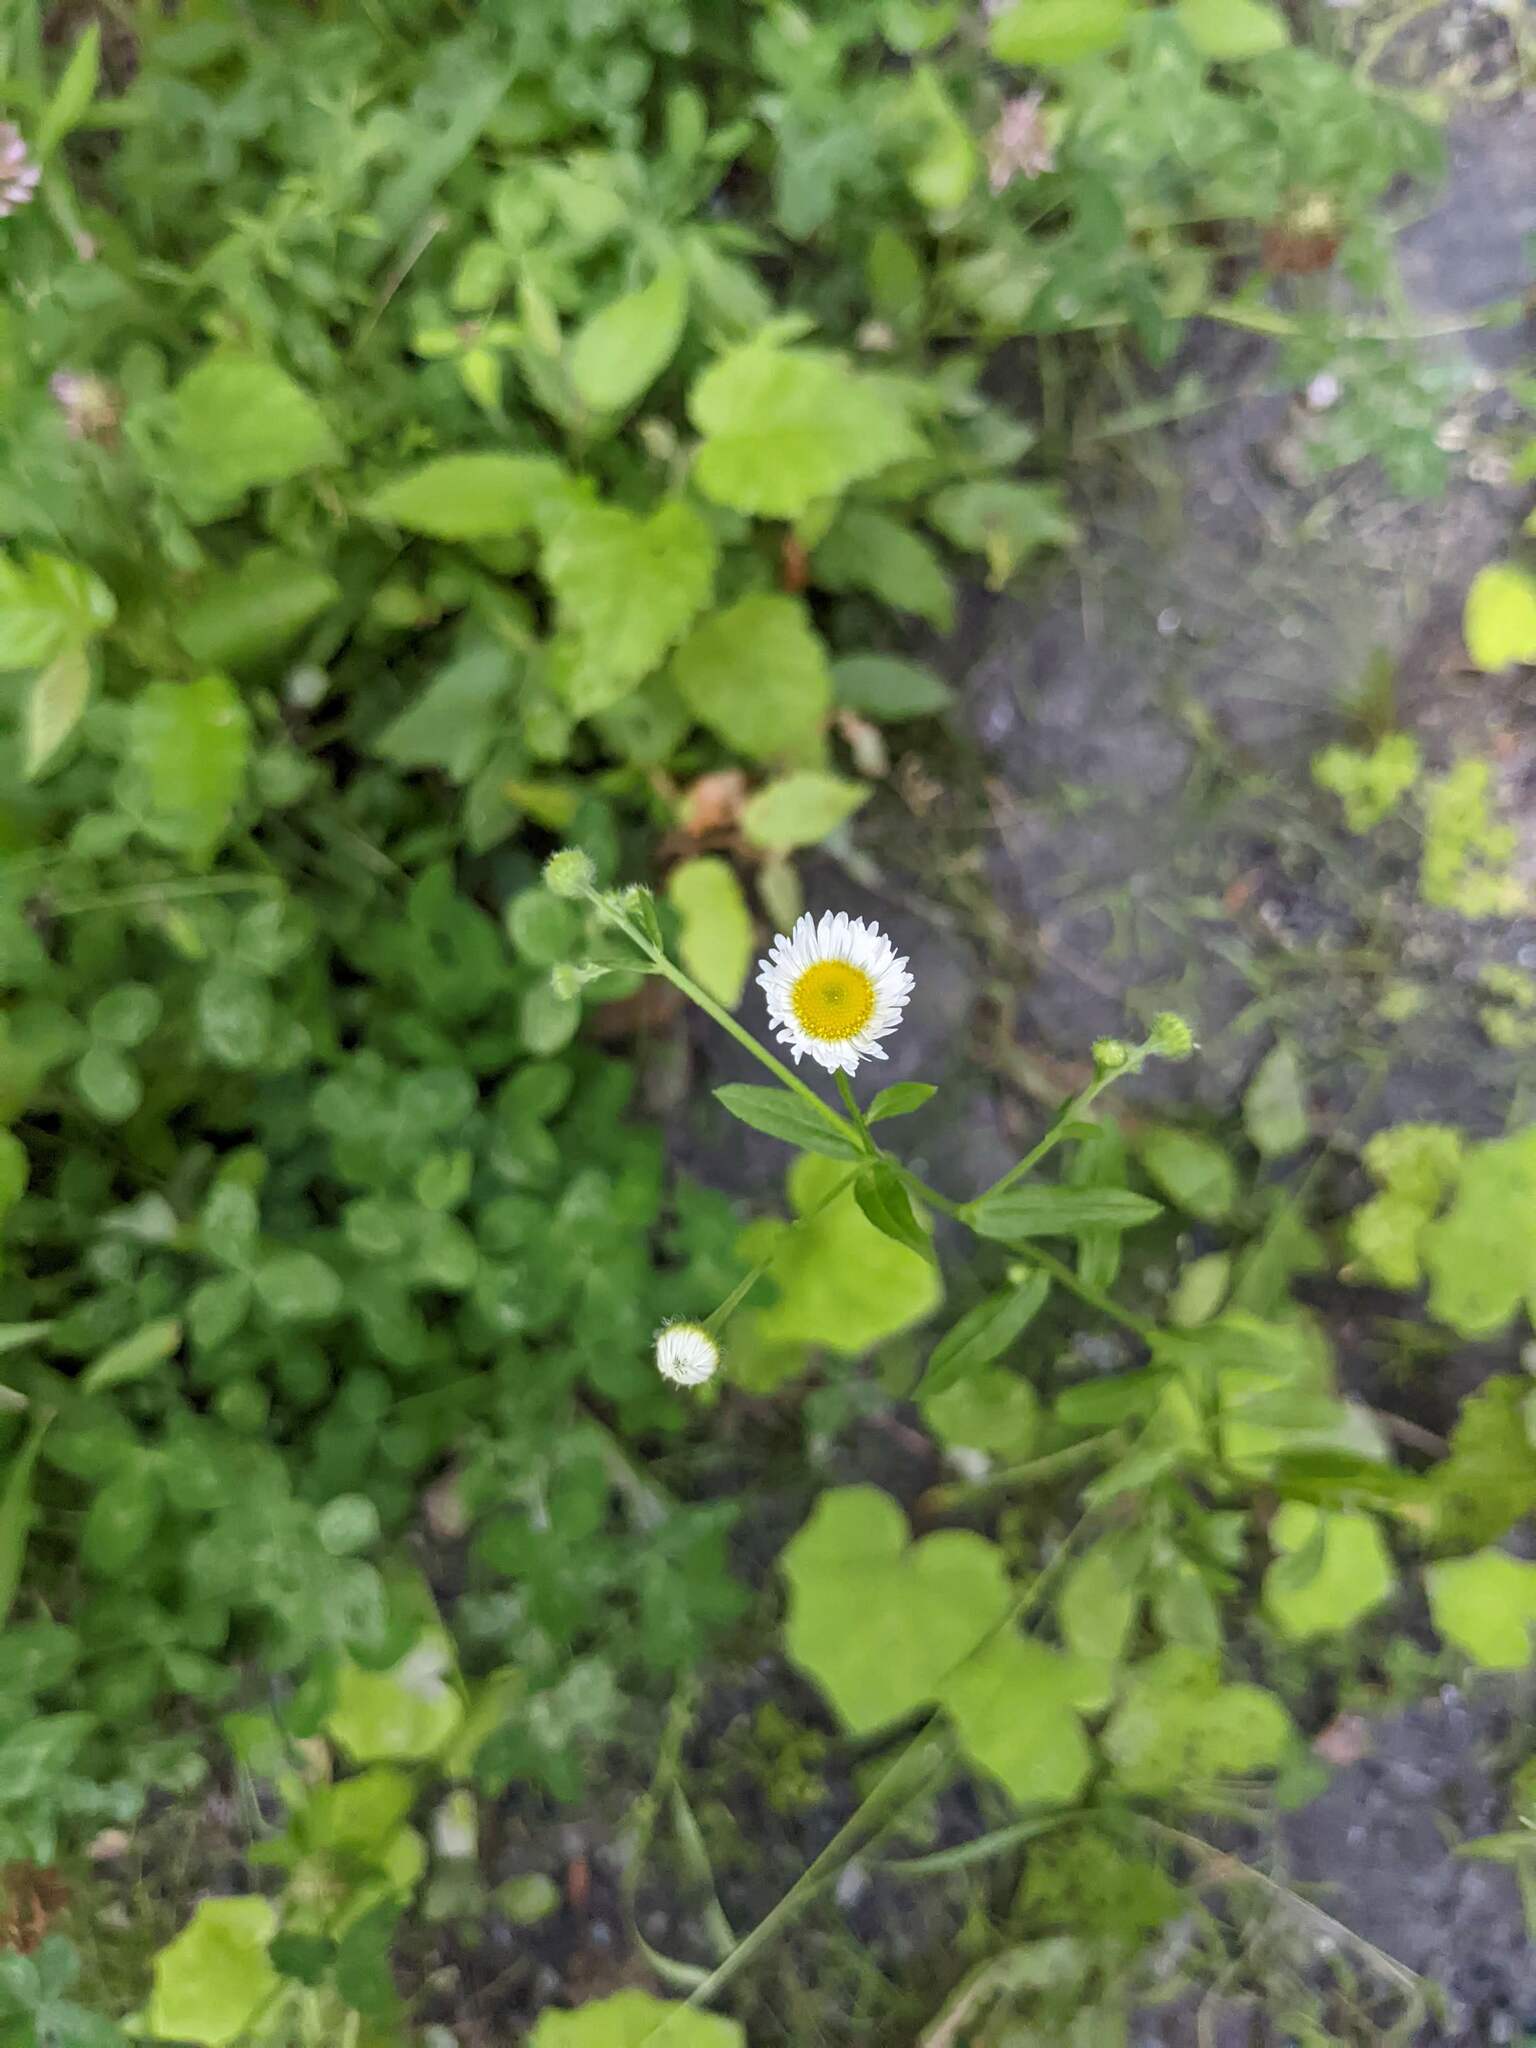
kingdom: Plantae
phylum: Tracheophyta
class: Magnoliopsida
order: Asterales
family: Asteraceae
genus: Erigeron
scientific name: Erigeron strigosus
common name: Common eastern fleabane
